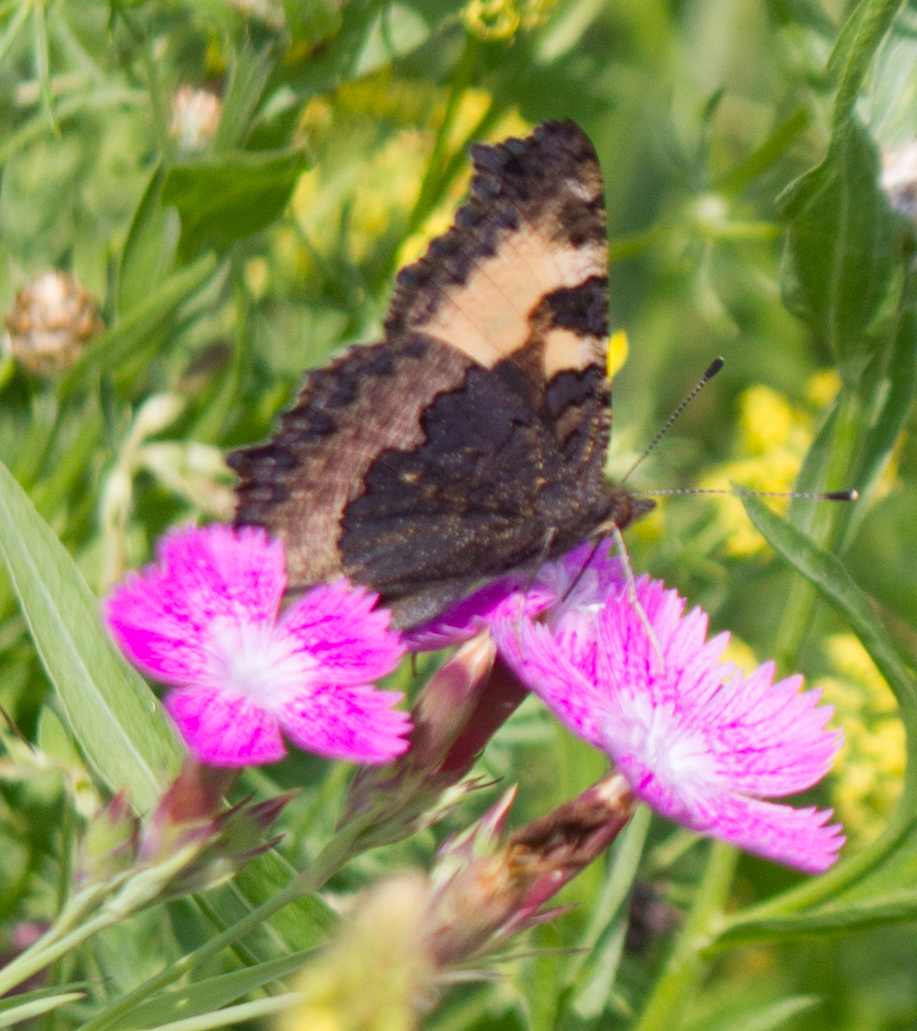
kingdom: Animalia
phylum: Arthropoda
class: Insecta
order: Lepidoptera
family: Nymphalidae
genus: Aglais
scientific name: Aglais urticae
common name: Small tortoiseshell
